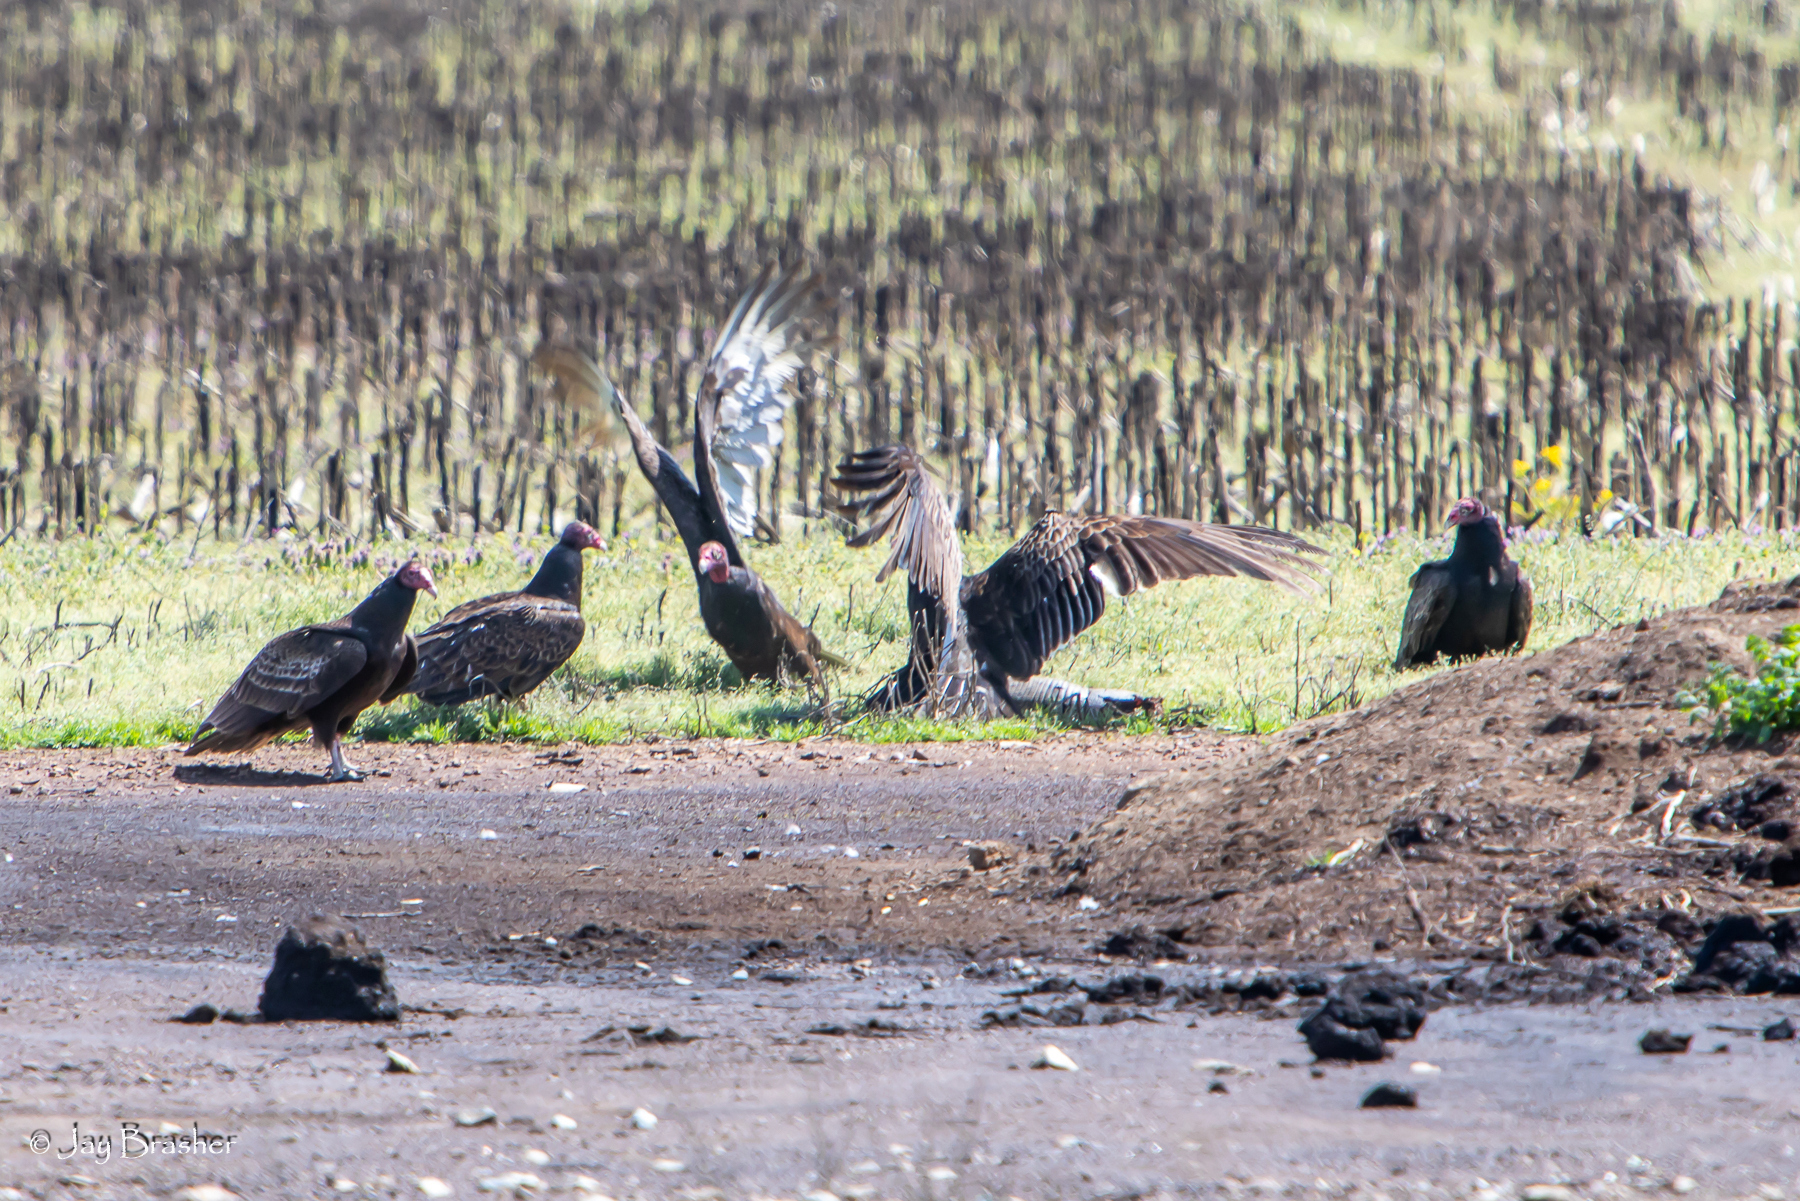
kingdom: Animalia
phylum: Chordata
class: Aves
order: Accipitriformes
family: Cathartidae
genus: Cathartes
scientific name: Cathartes aura
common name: Turkey vulture
